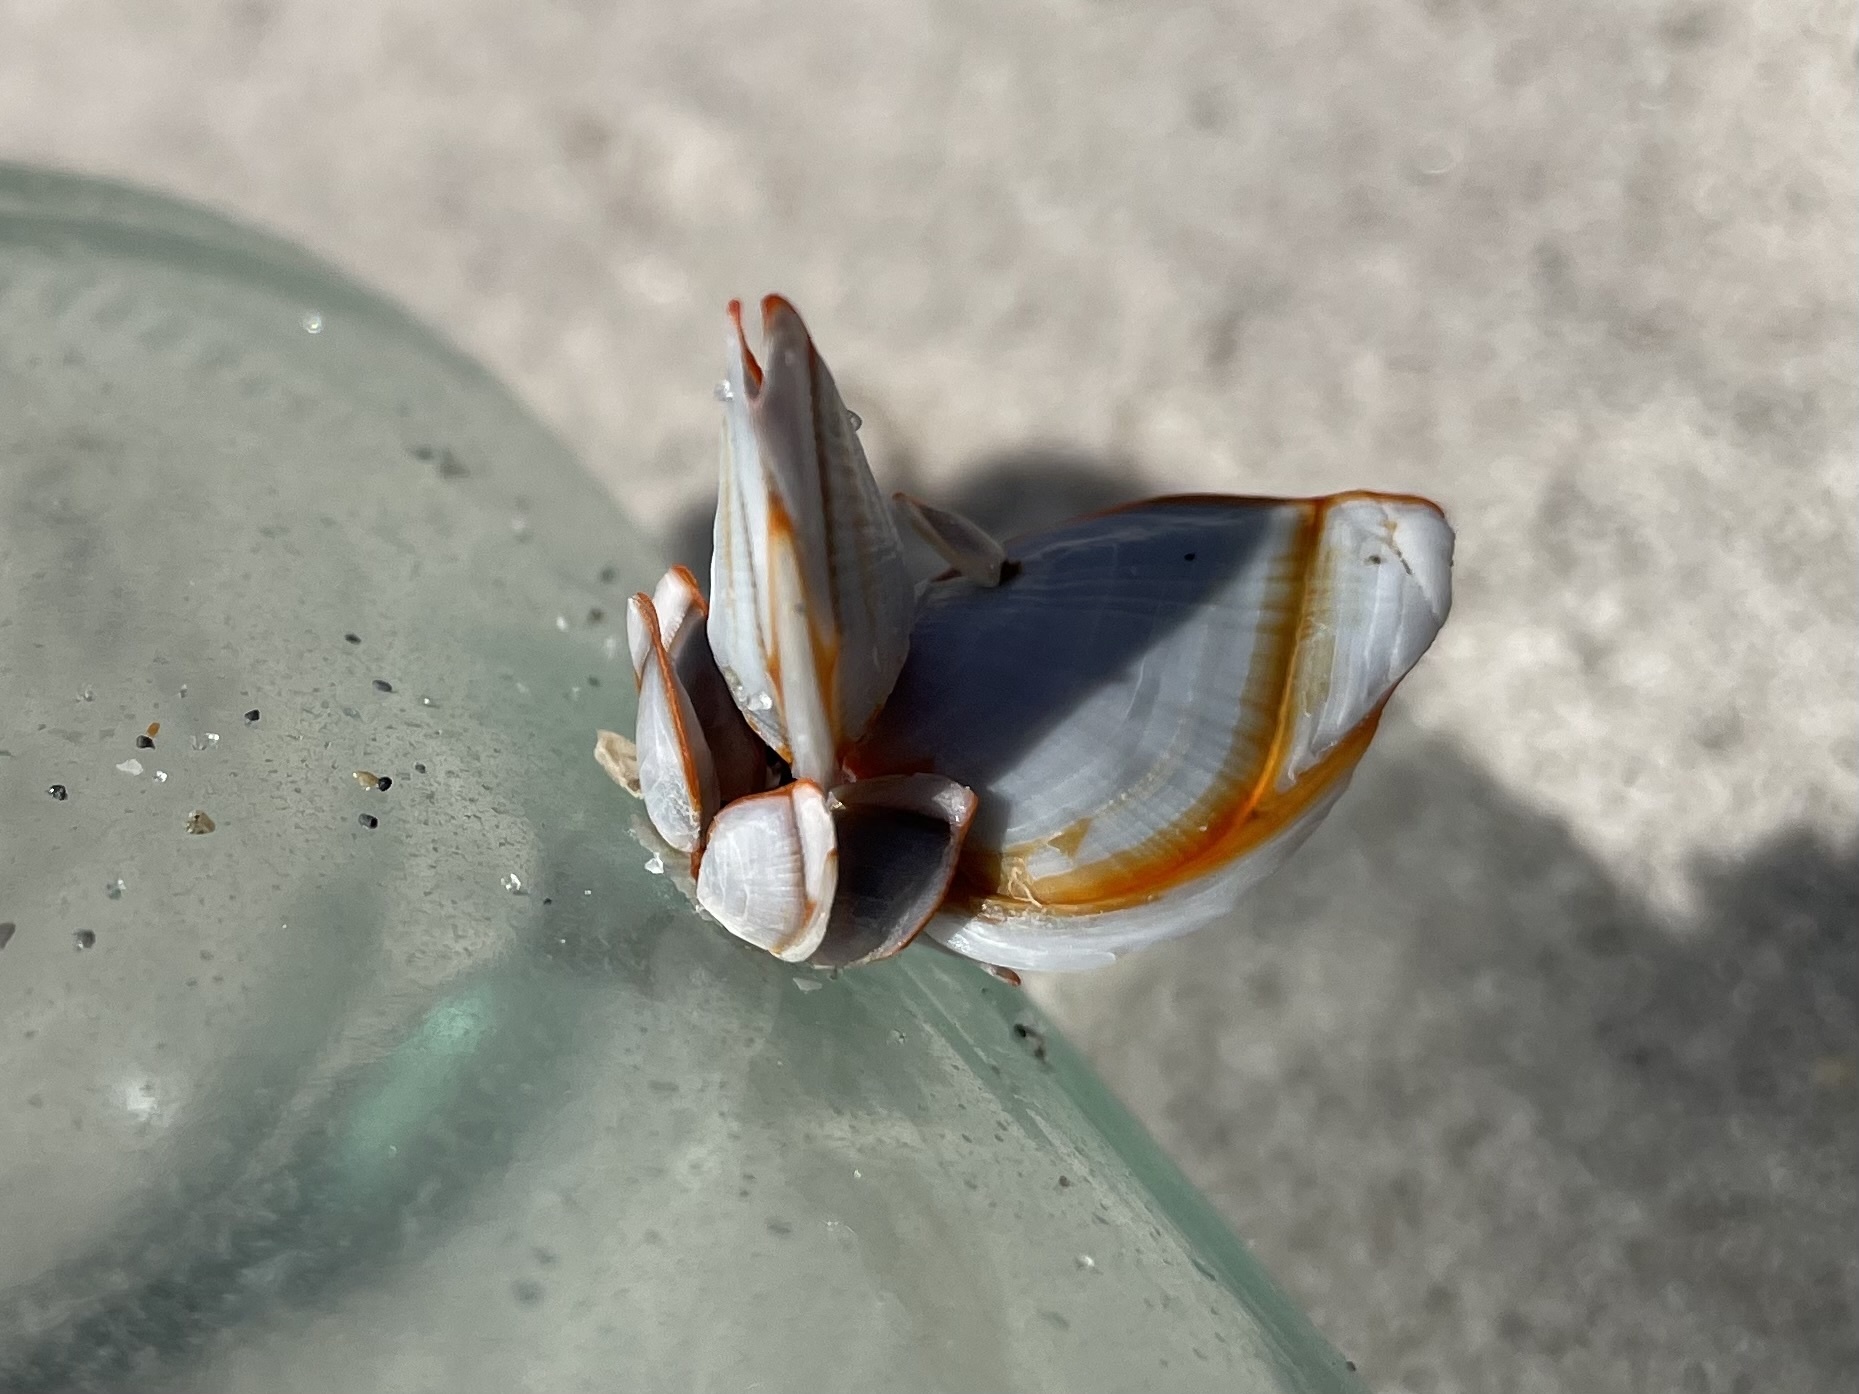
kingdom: Animalia
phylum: Arthropoda
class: Maxillopoda
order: Pedunculata
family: Lepadidae
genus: Lepas
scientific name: Lepas anserifera
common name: Goose barnacle
